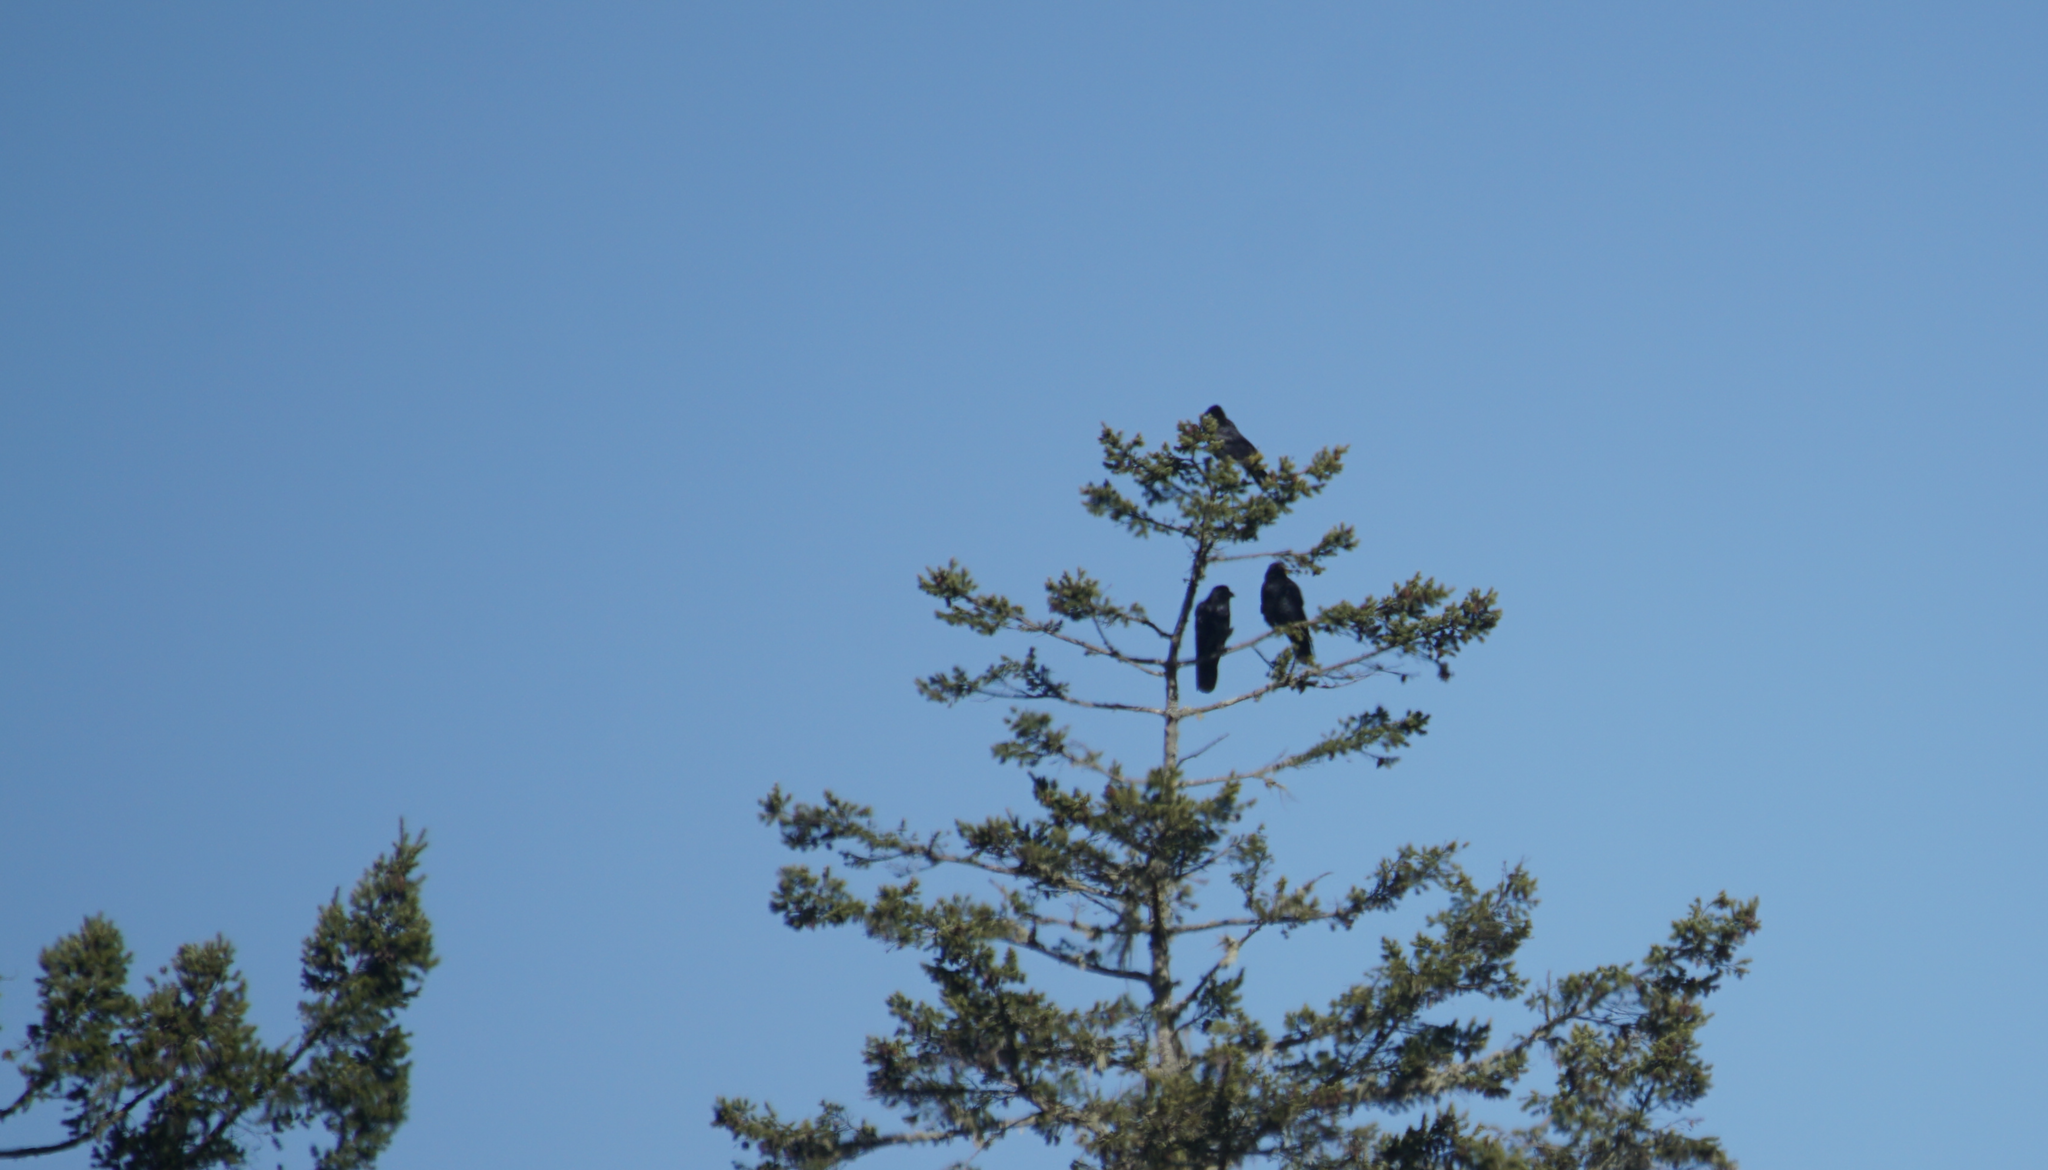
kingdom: Animalia
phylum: Chordata
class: Aves
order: Passeriformes
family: Corvidae
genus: Corvus
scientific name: Corvus corax
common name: Common raven
